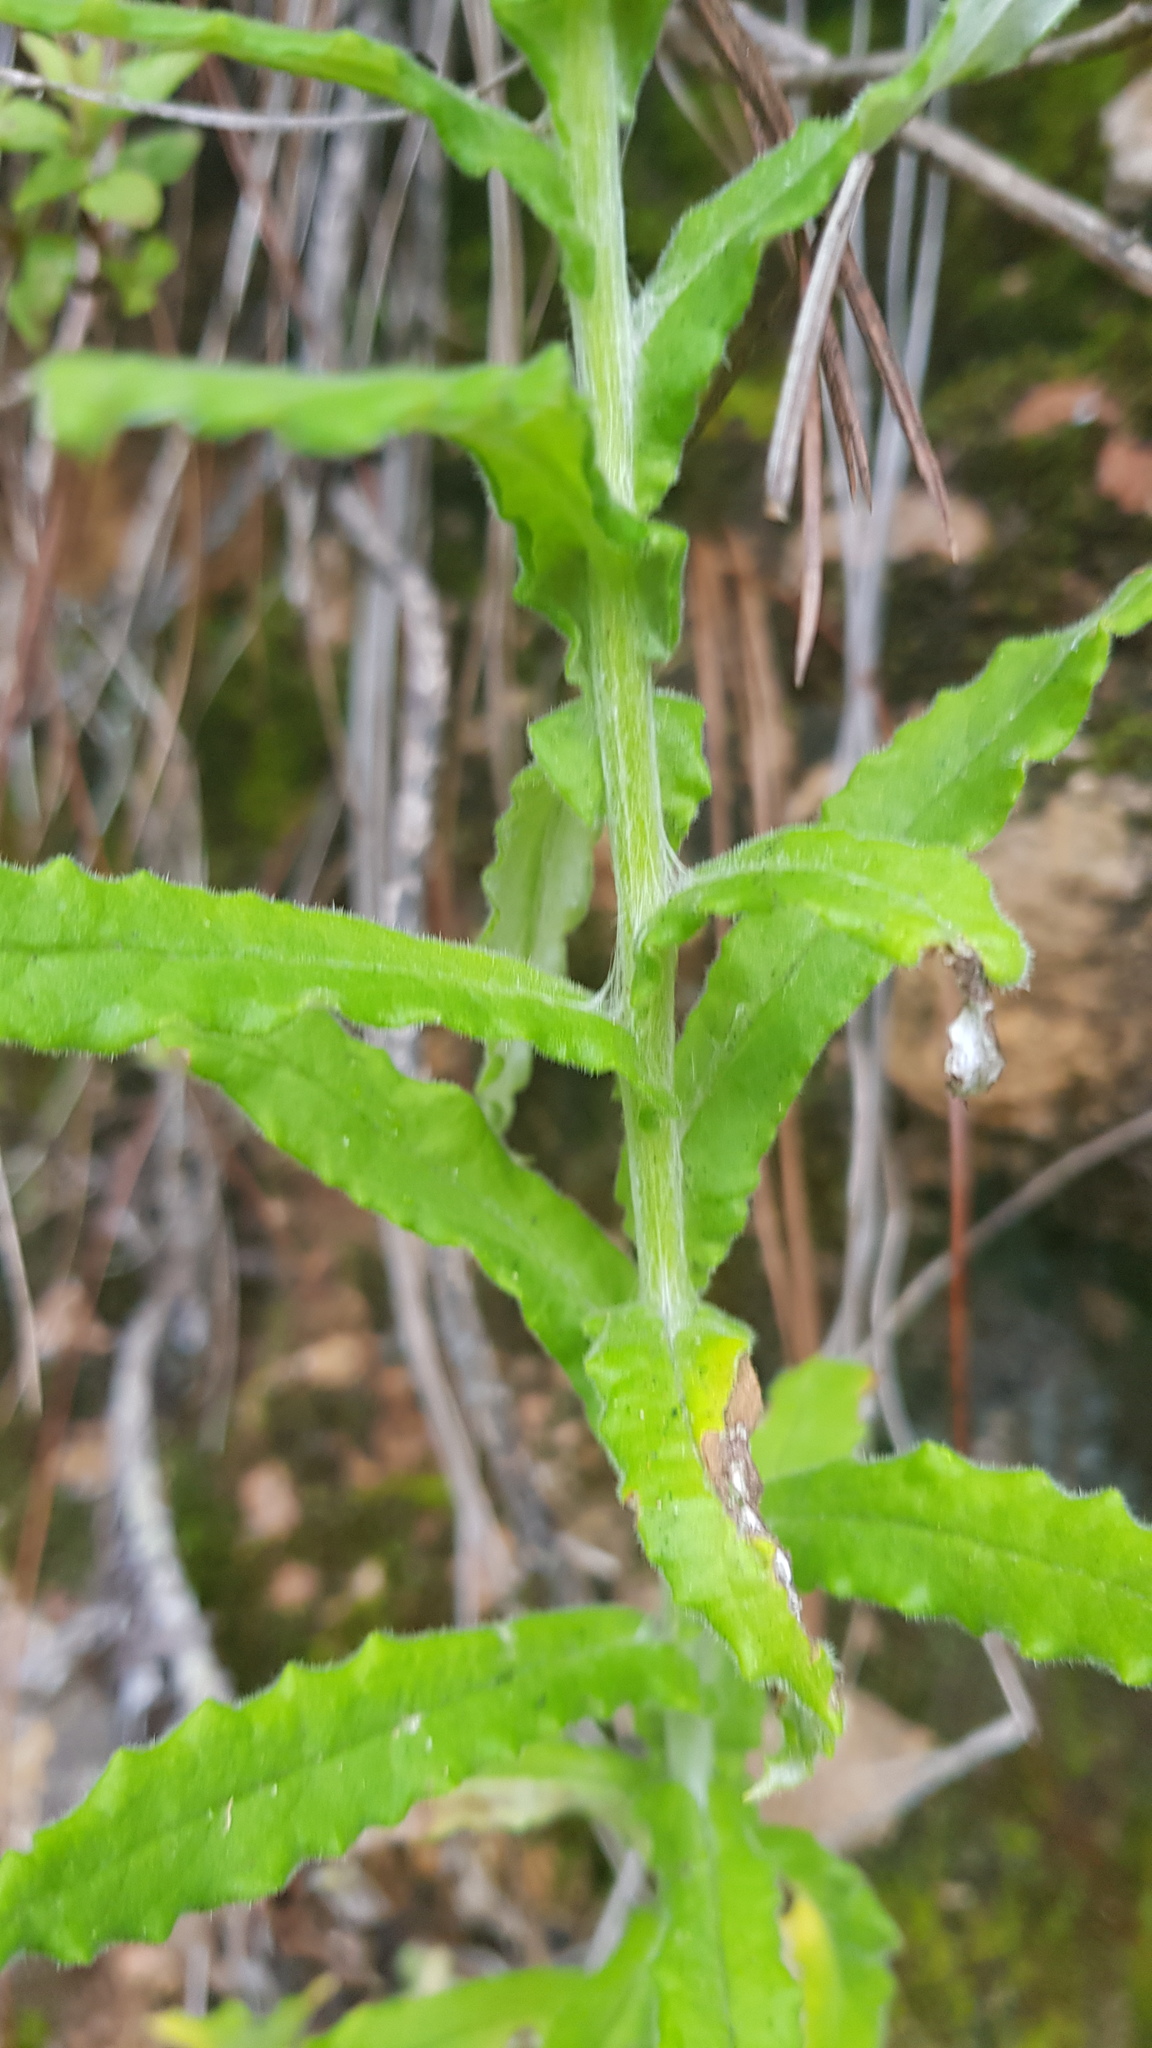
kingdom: Plantae
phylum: Tracheophyta
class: Magnoliopsida
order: Asterales
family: Asteraceae
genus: Pseudognaphalium
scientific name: Pseudognaphalium chartaceum
